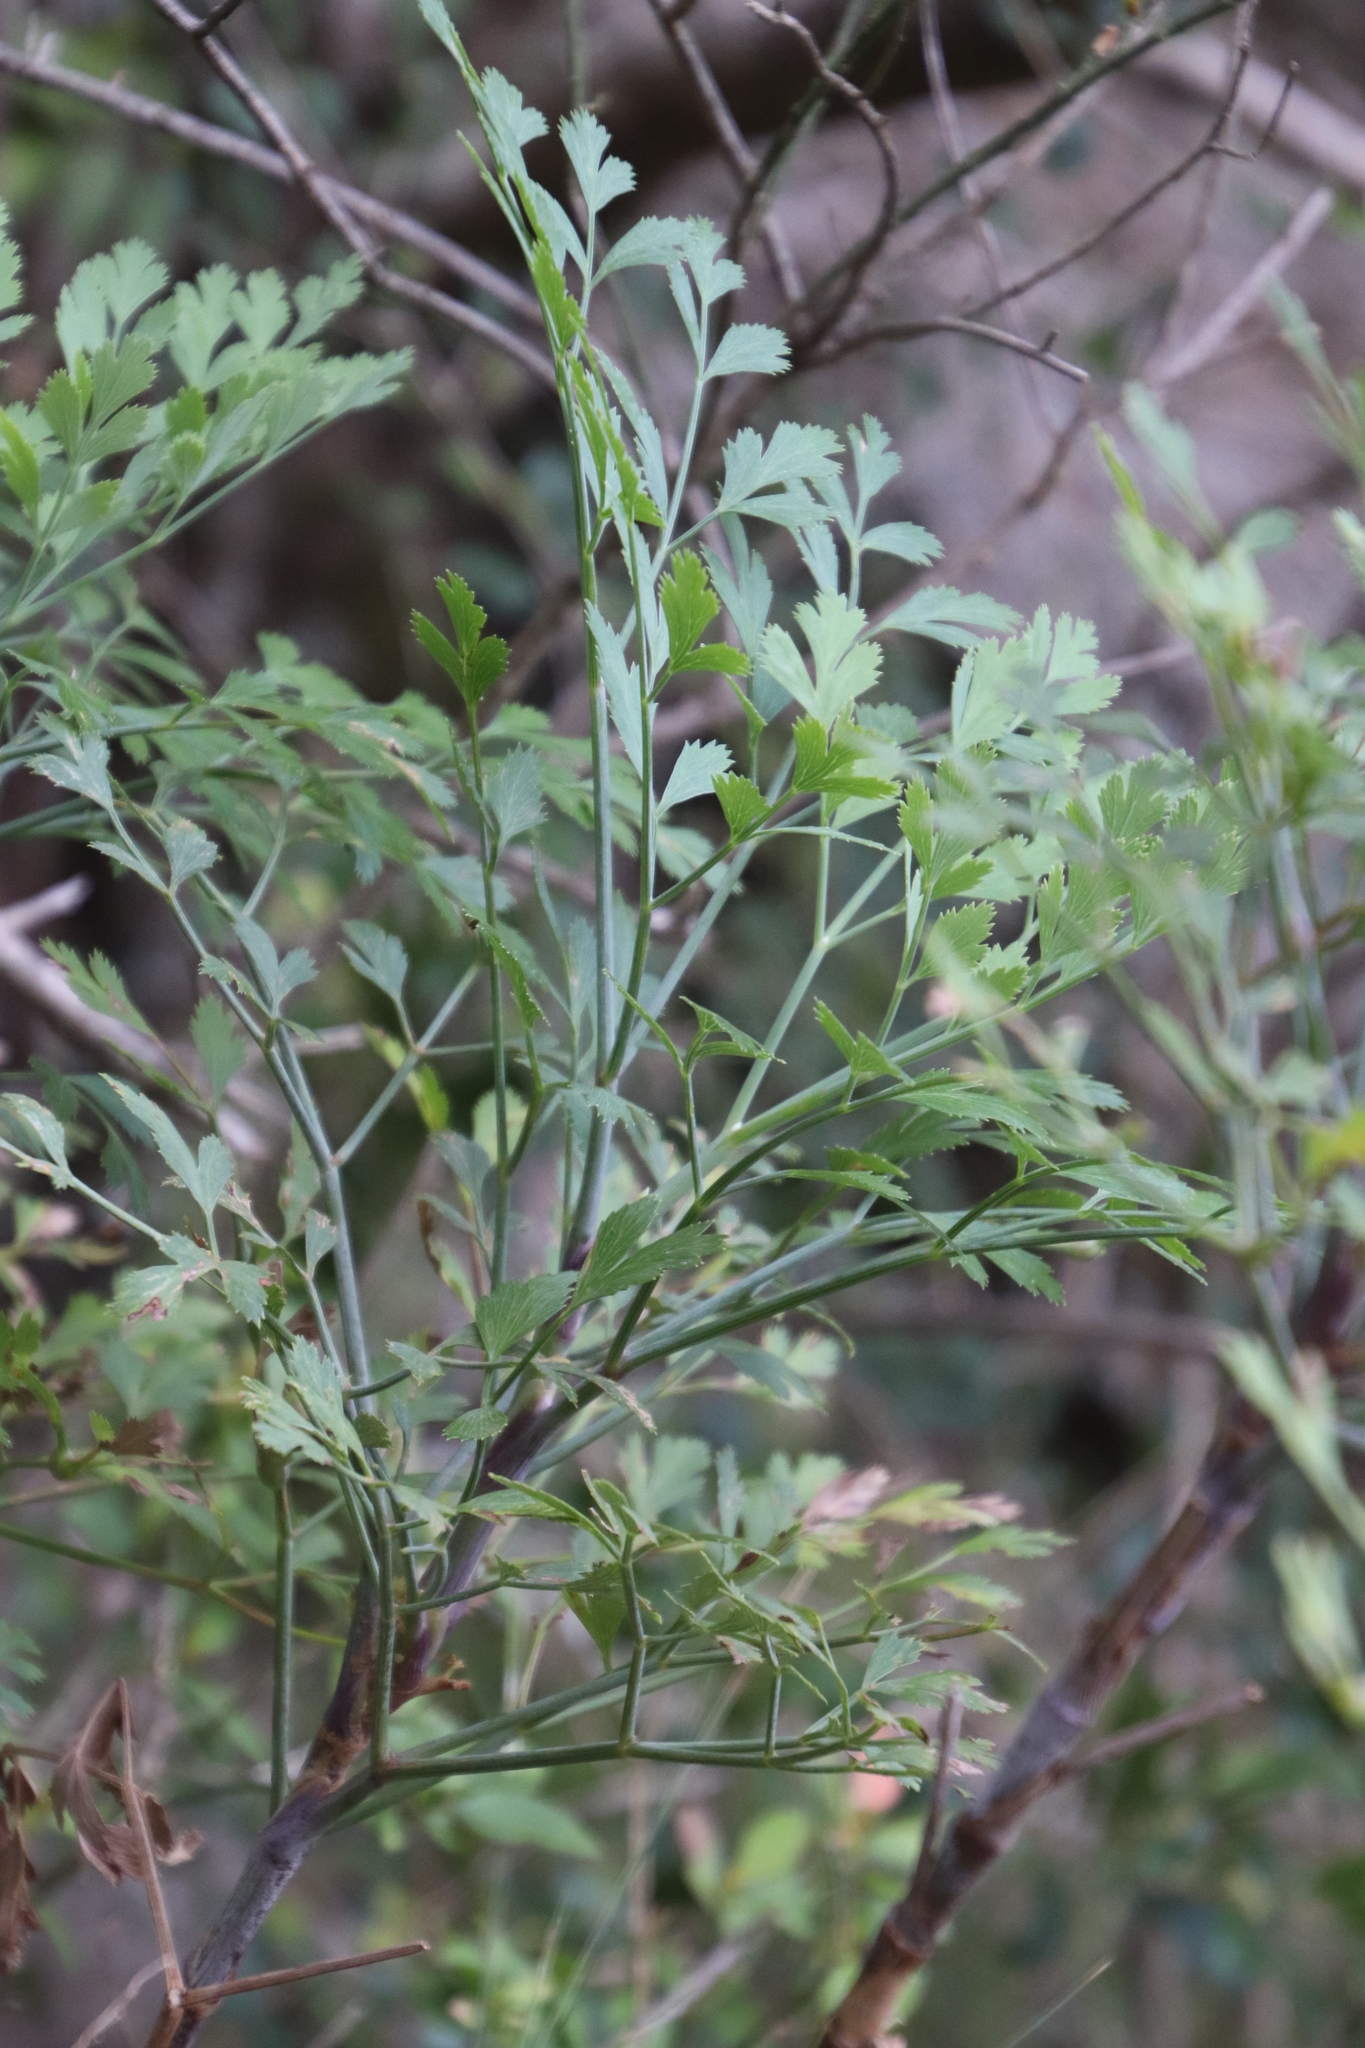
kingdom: Plantae
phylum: Tracheophyta
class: Magnoliopsida
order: Apiales
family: Apiaceae
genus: Notobubon
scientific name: Notobubon galbanum
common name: Blisterbush
